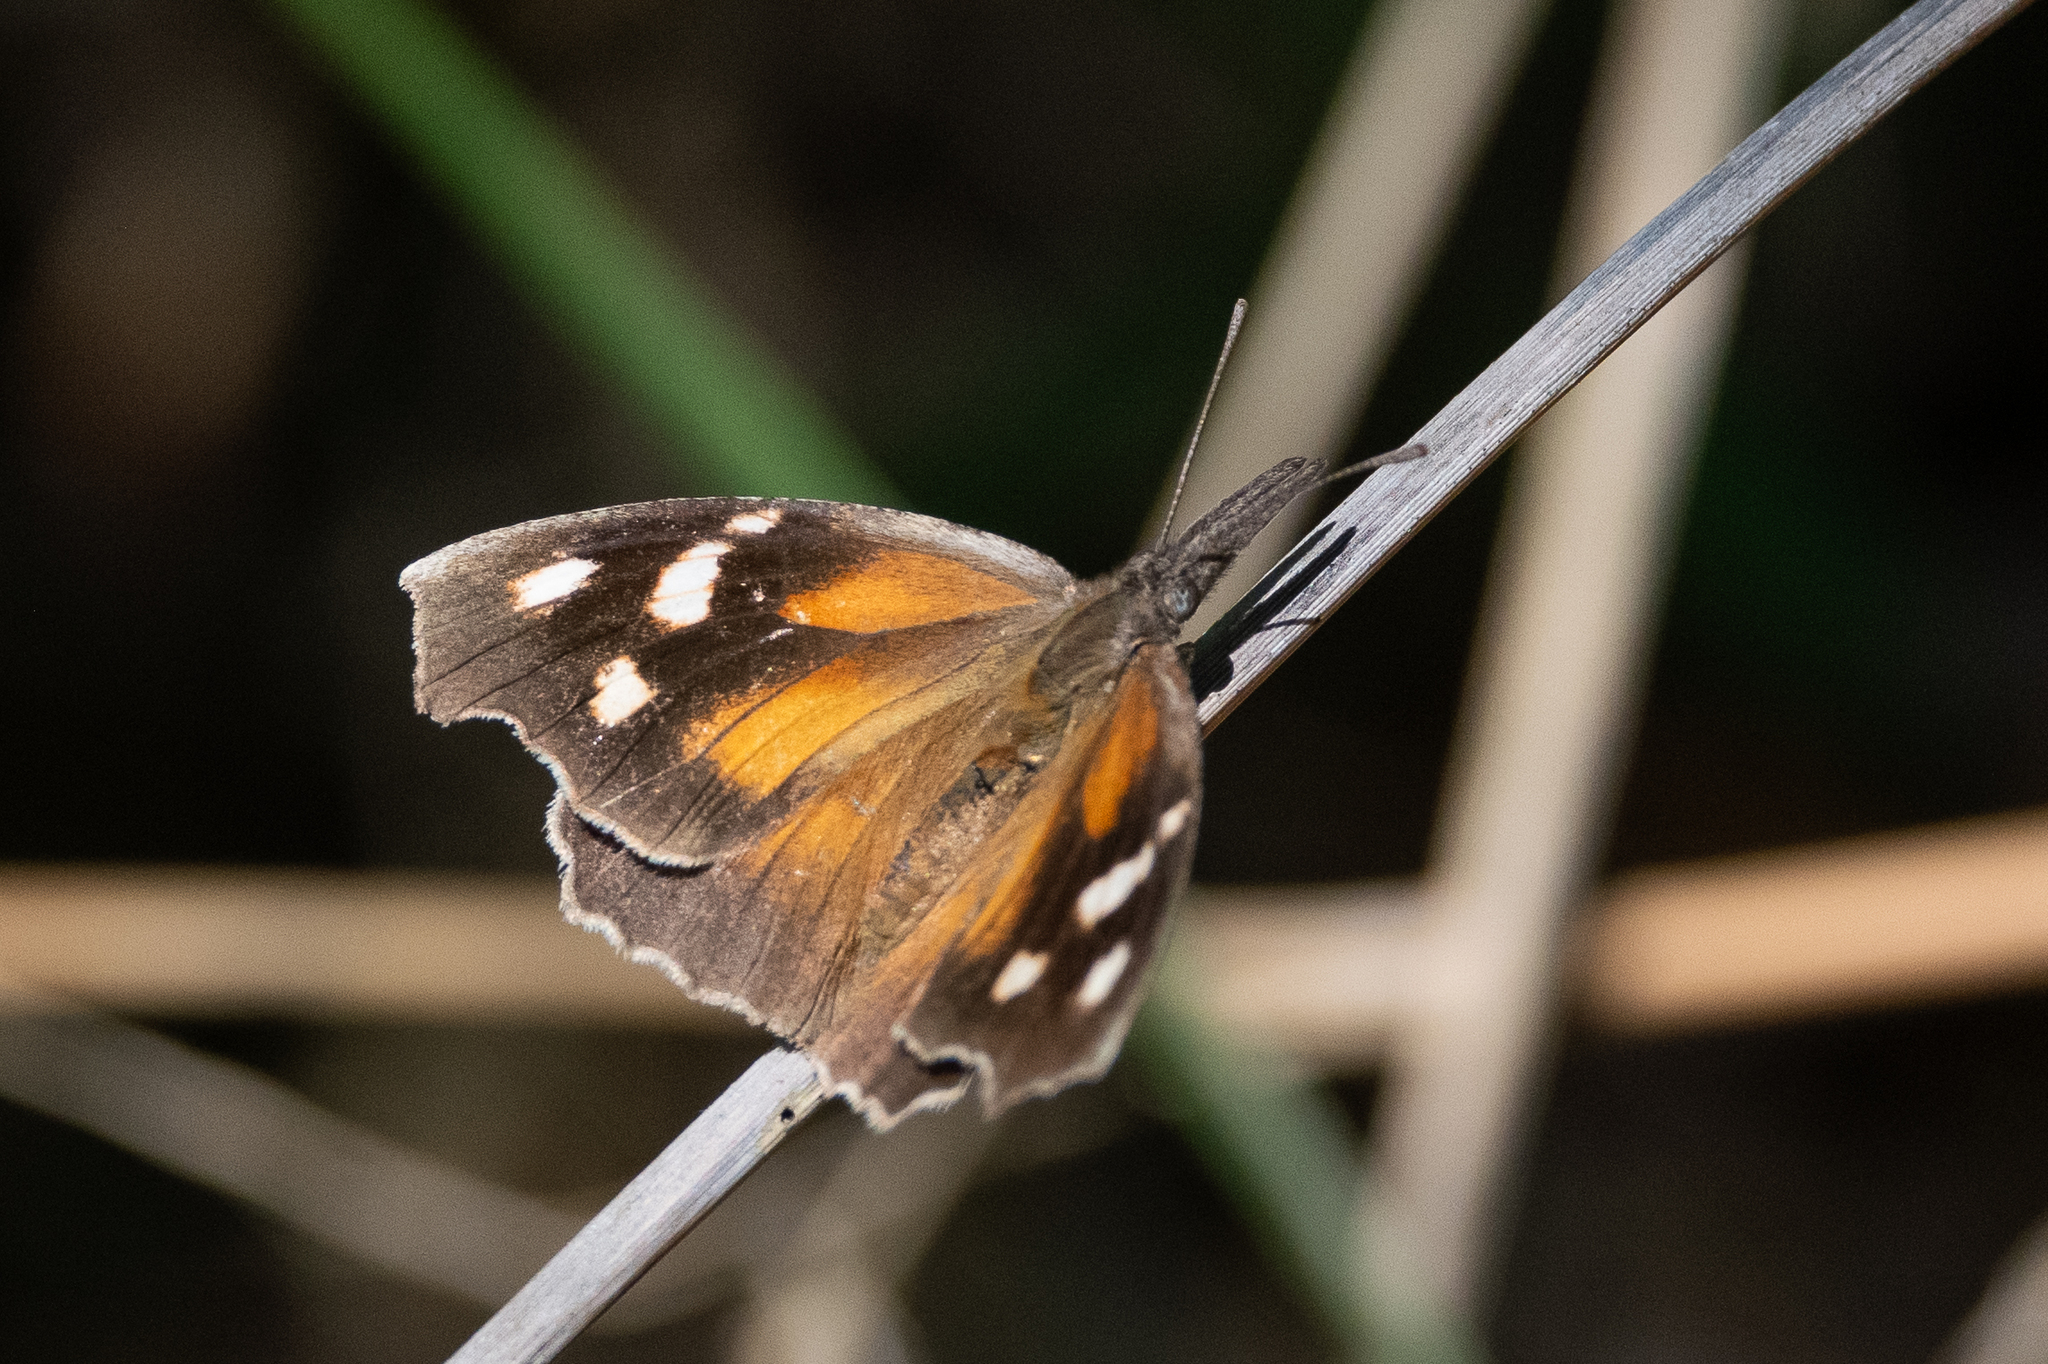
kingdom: Animalia
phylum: Arthropoda
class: Insecta
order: Lepidoptera
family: Nymphalidae
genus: Libytheana
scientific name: Libytheana carinenta
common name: American snout
